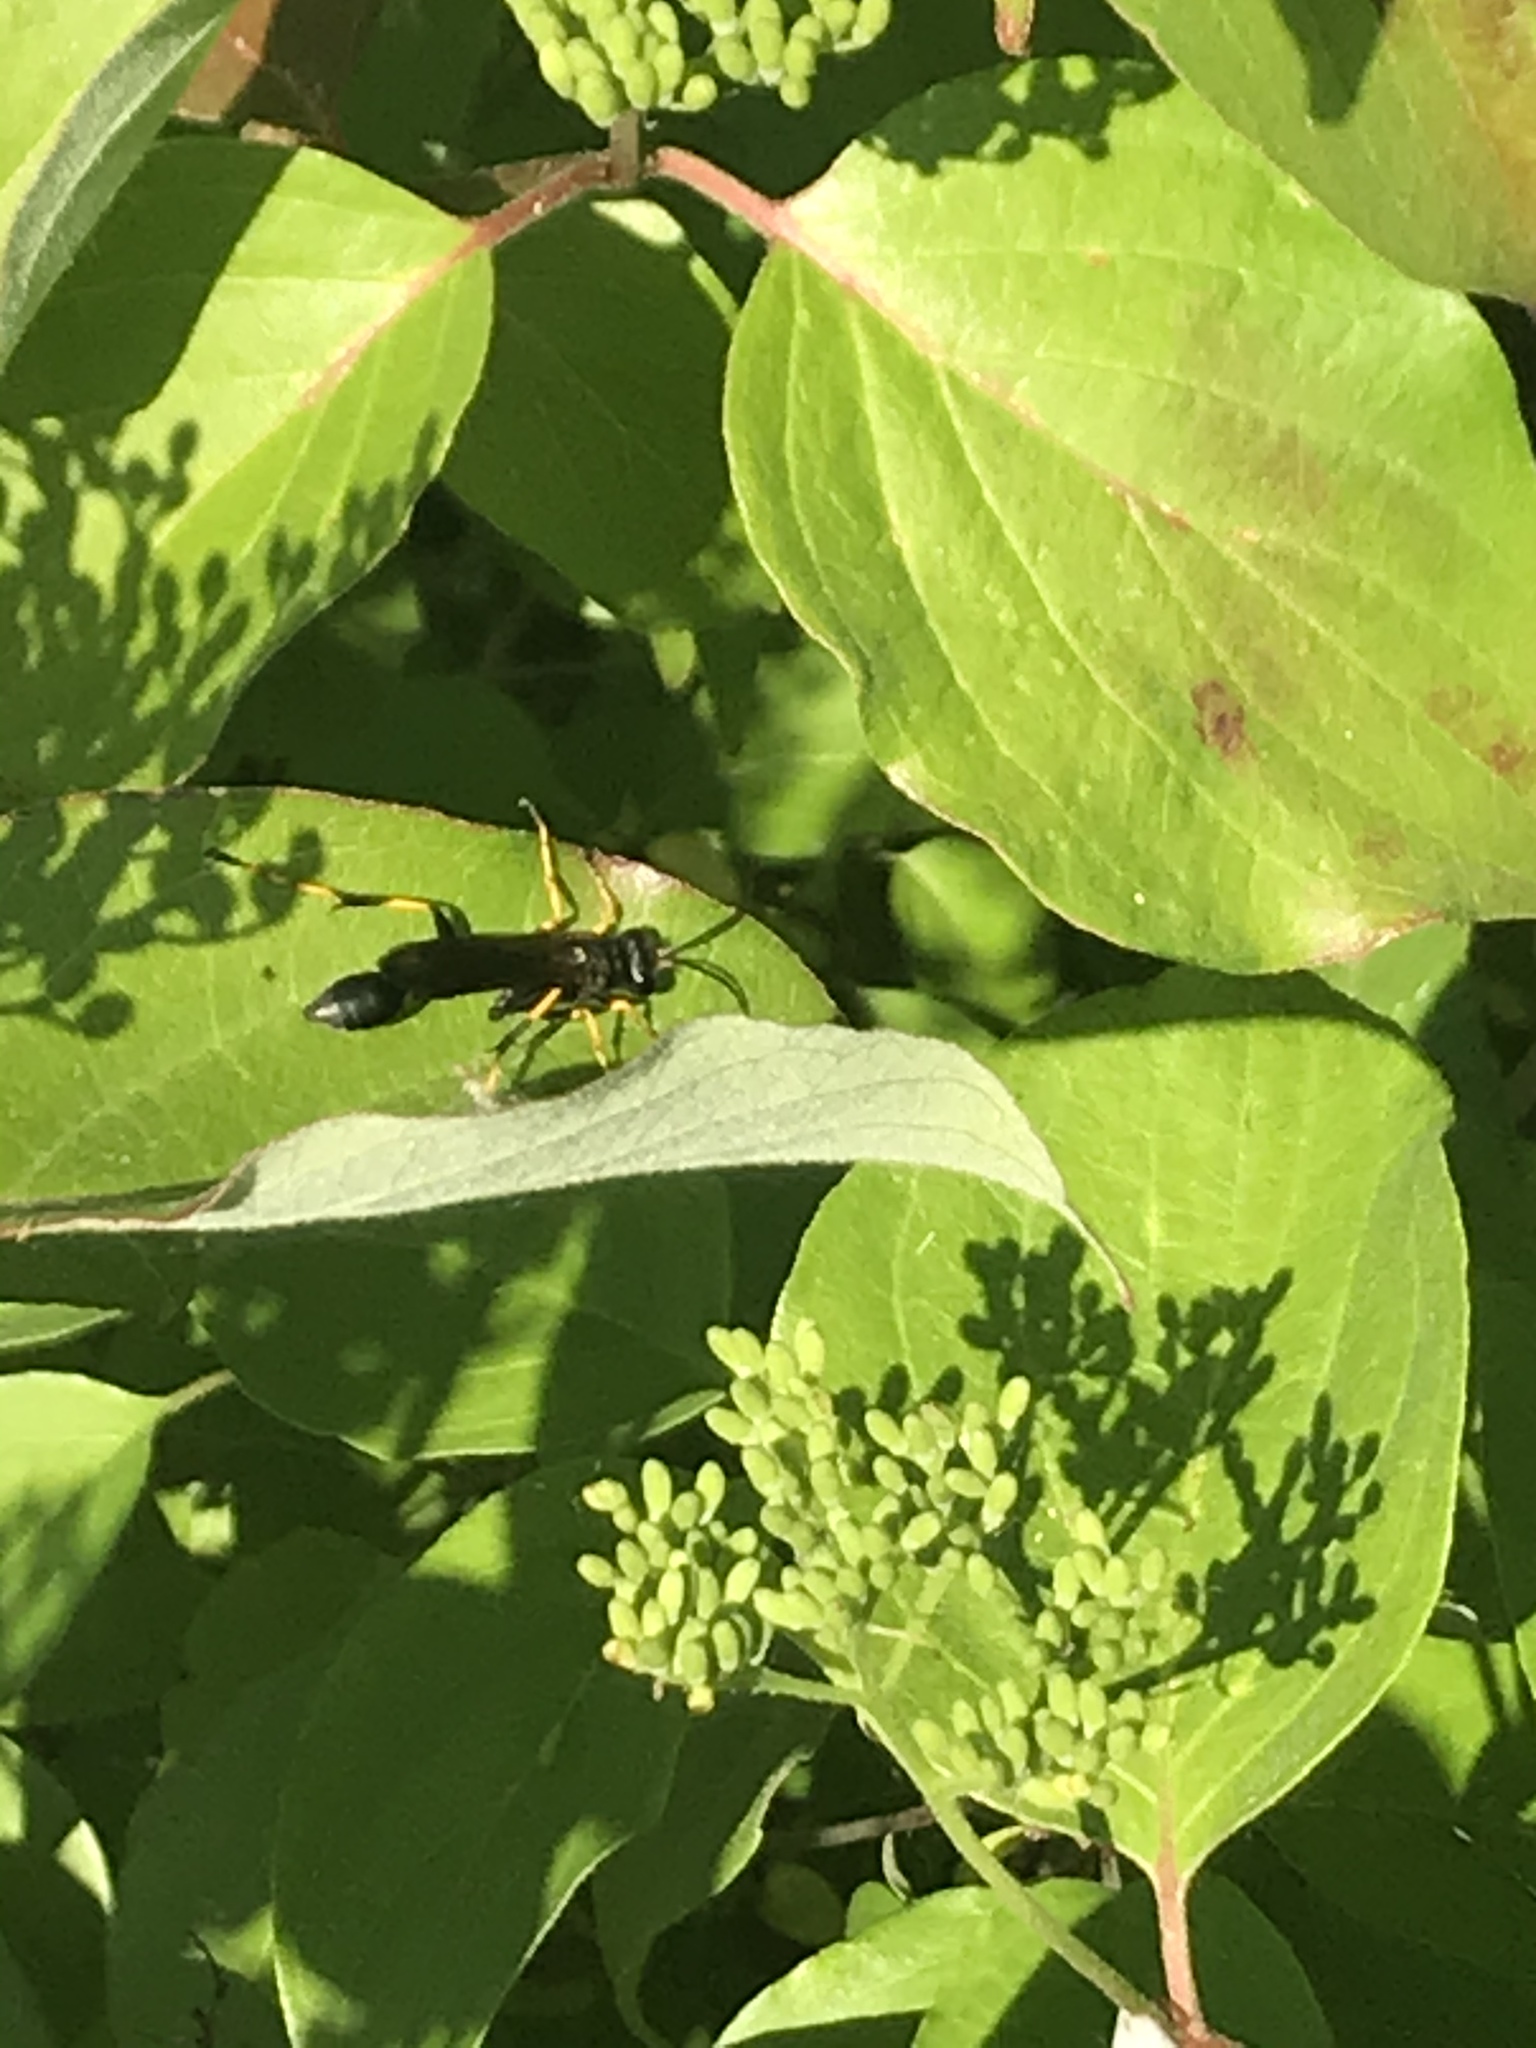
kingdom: Animalia
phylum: Arthropoda
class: Insecta
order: Hymenoptera
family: Sphecidae
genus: Sceliphron
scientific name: Sceliphron caementarium
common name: Mud dauber
